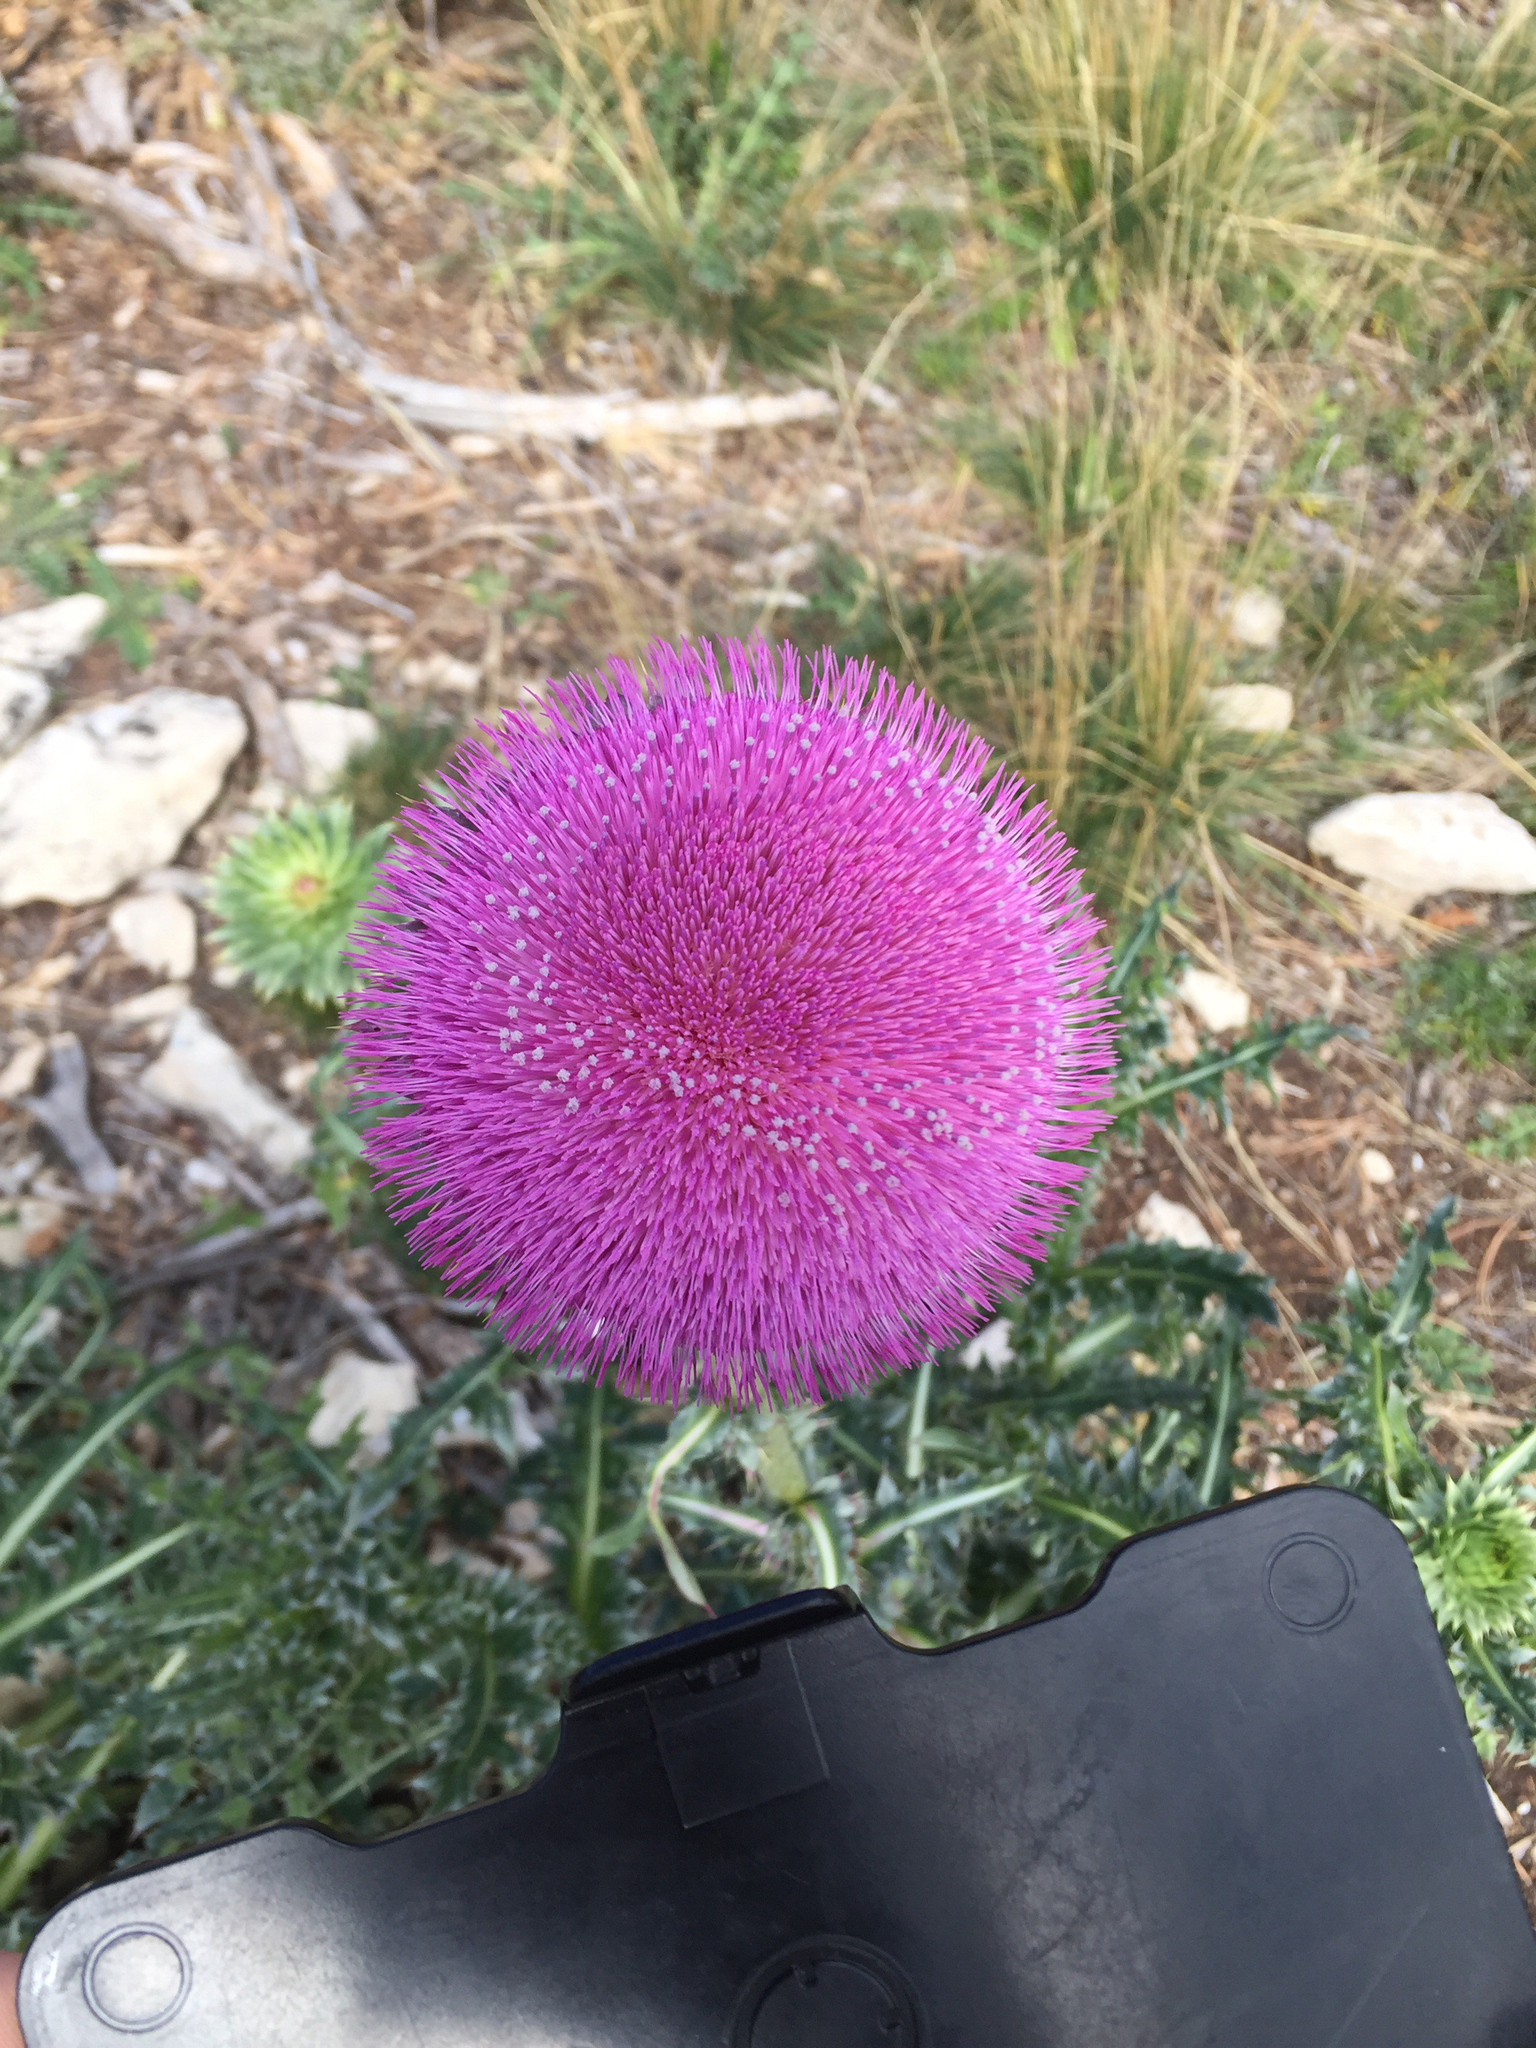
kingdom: Plantae
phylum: Tracheophyta
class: Magnoliopsida
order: Asterales
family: Asteraceae
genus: Carduus
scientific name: Carduus nutans
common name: Musk thistle
